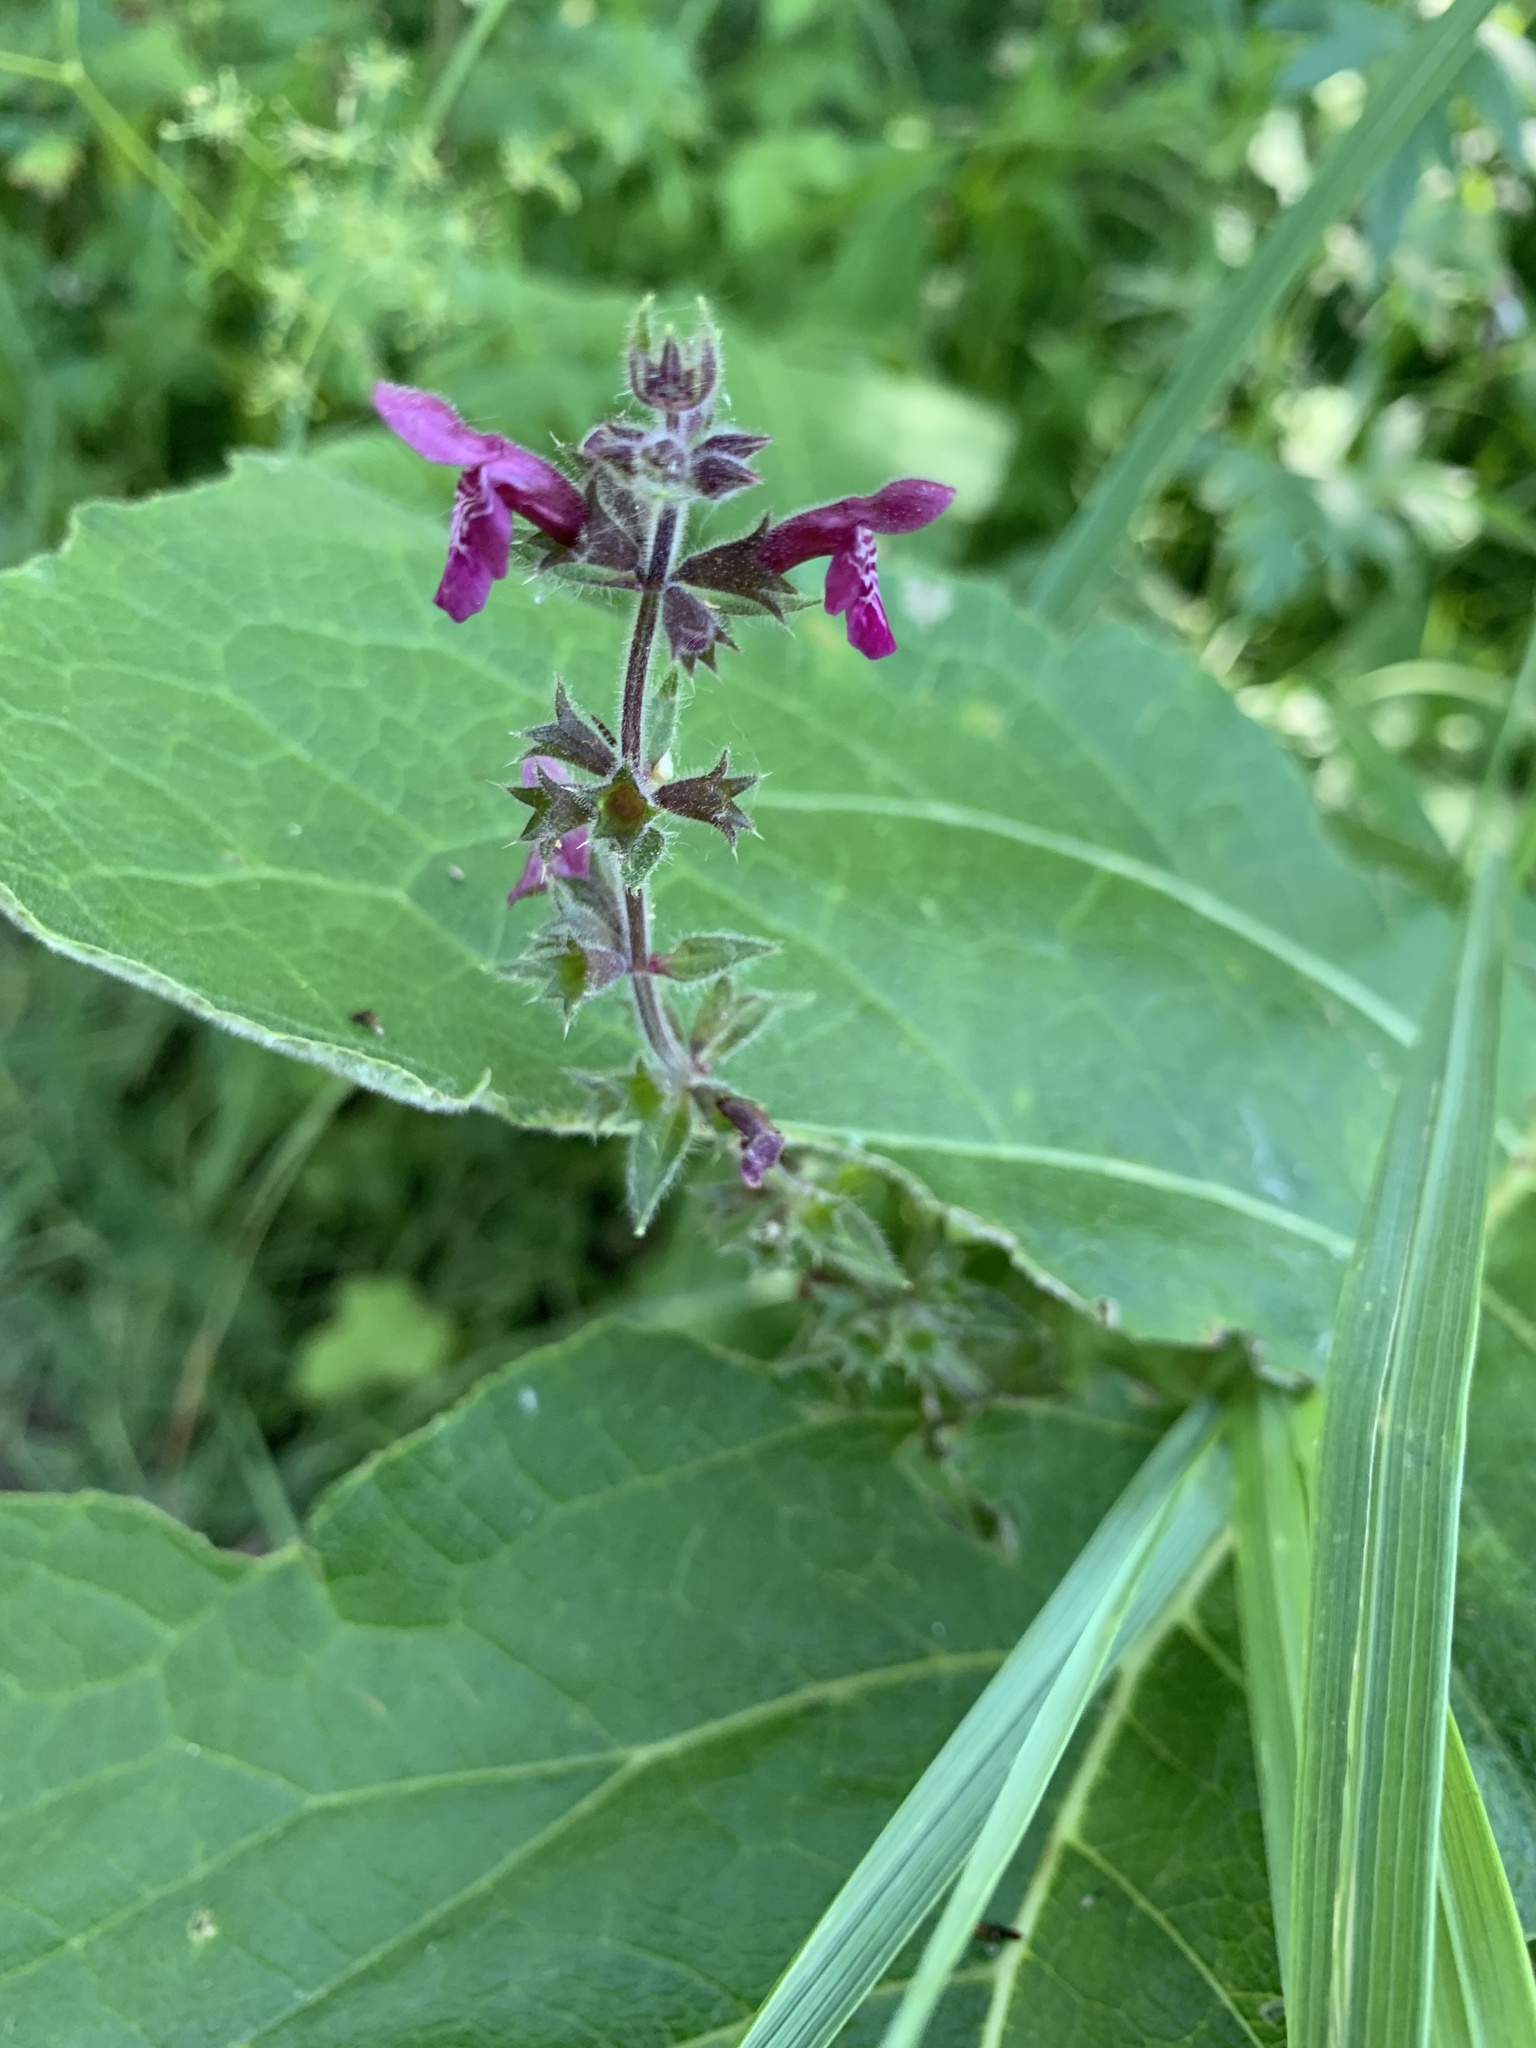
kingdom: Plantae
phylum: Tracheophyta
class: Magnoliopsida
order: Lamiales
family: Lamiaceae
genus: Stachys
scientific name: Stachys sylvatica
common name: Hedge woundwort
